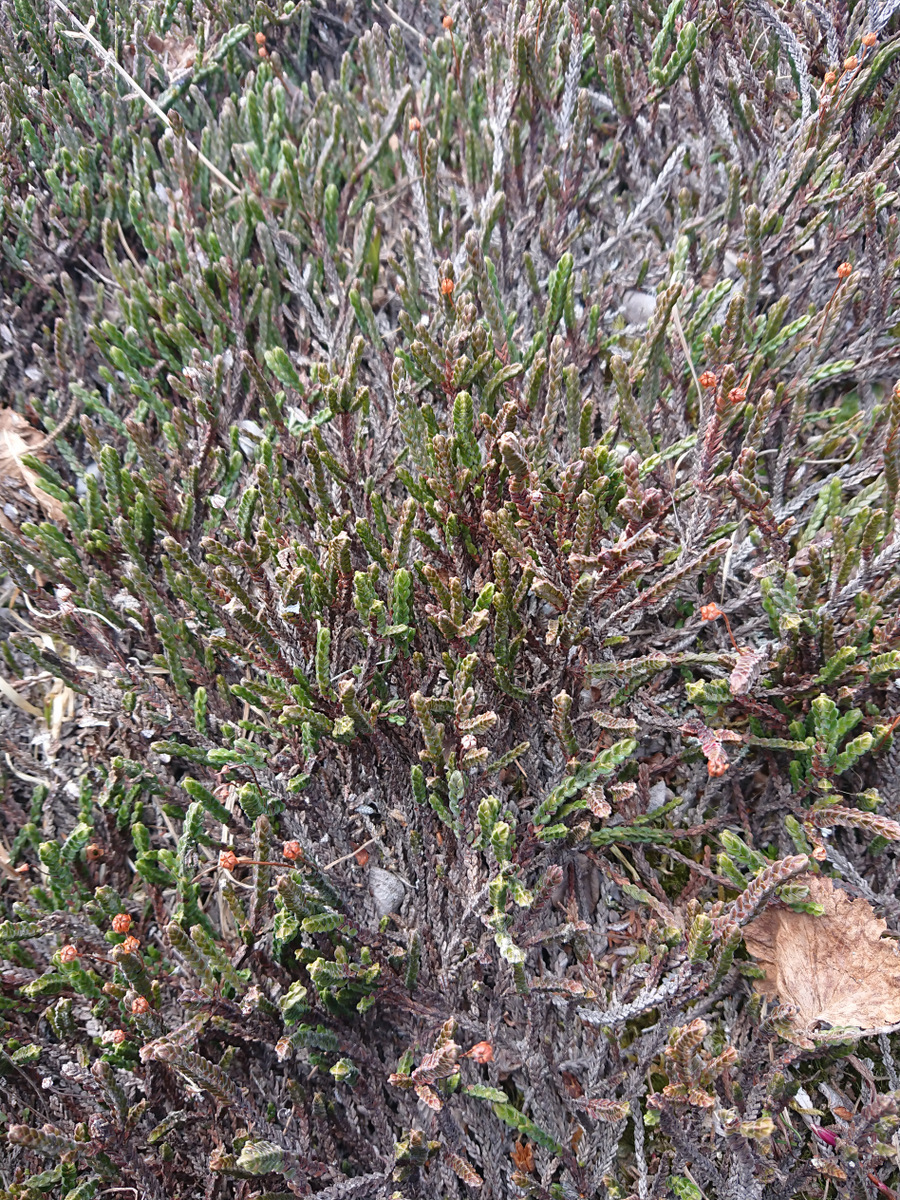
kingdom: Plantae
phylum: Tracheophyta
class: Magnoliopsida
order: Ericales
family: Ericaceae
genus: Cassiope
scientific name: Cassiope tetragona
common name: Arctic bell heather
